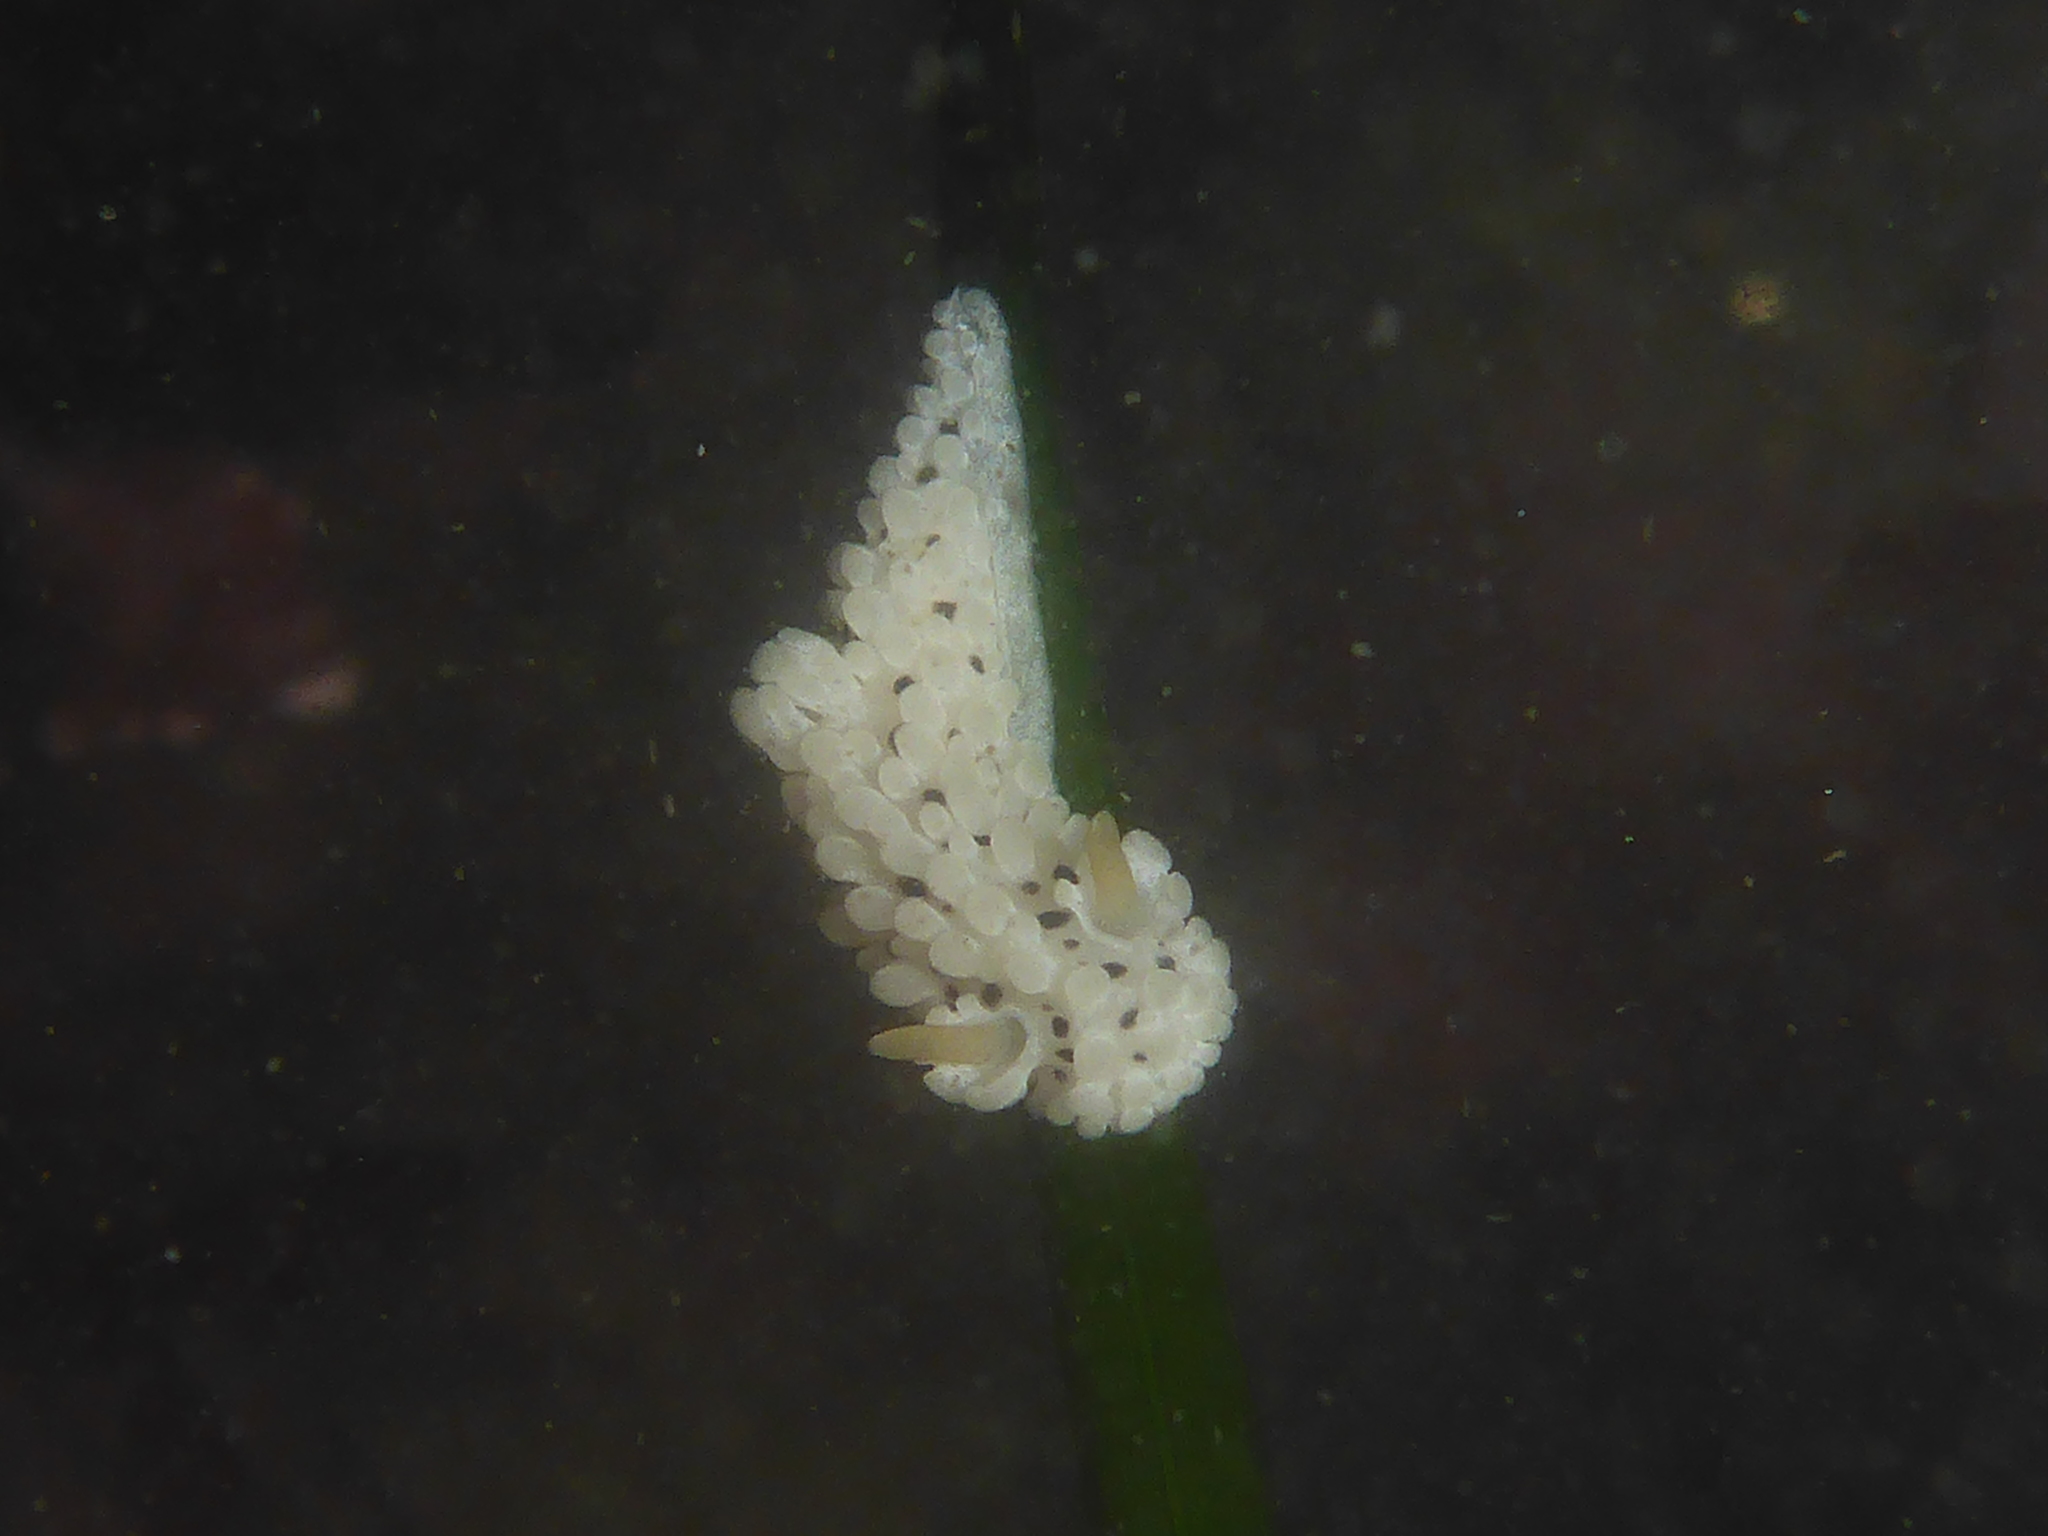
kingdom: Animalia
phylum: Mollusca
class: Gastropoda
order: Nudibranchia
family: Aegiridae
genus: Aegires
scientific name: Aegires albopunctatus
